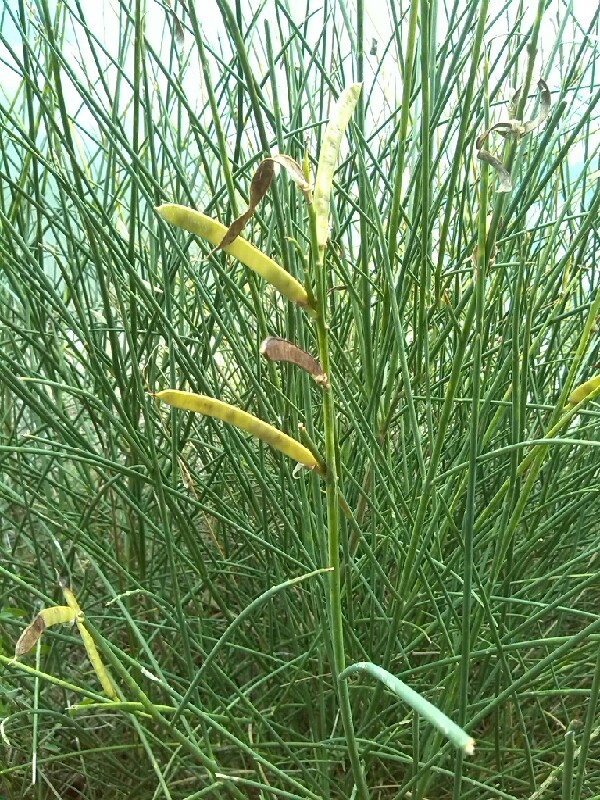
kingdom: Plantae
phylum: Tracheophyta
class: Magnoliopsida
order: Fabales
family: Fabaceae
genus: Spartium
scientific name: Spartium junceum
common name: Spanish broom
